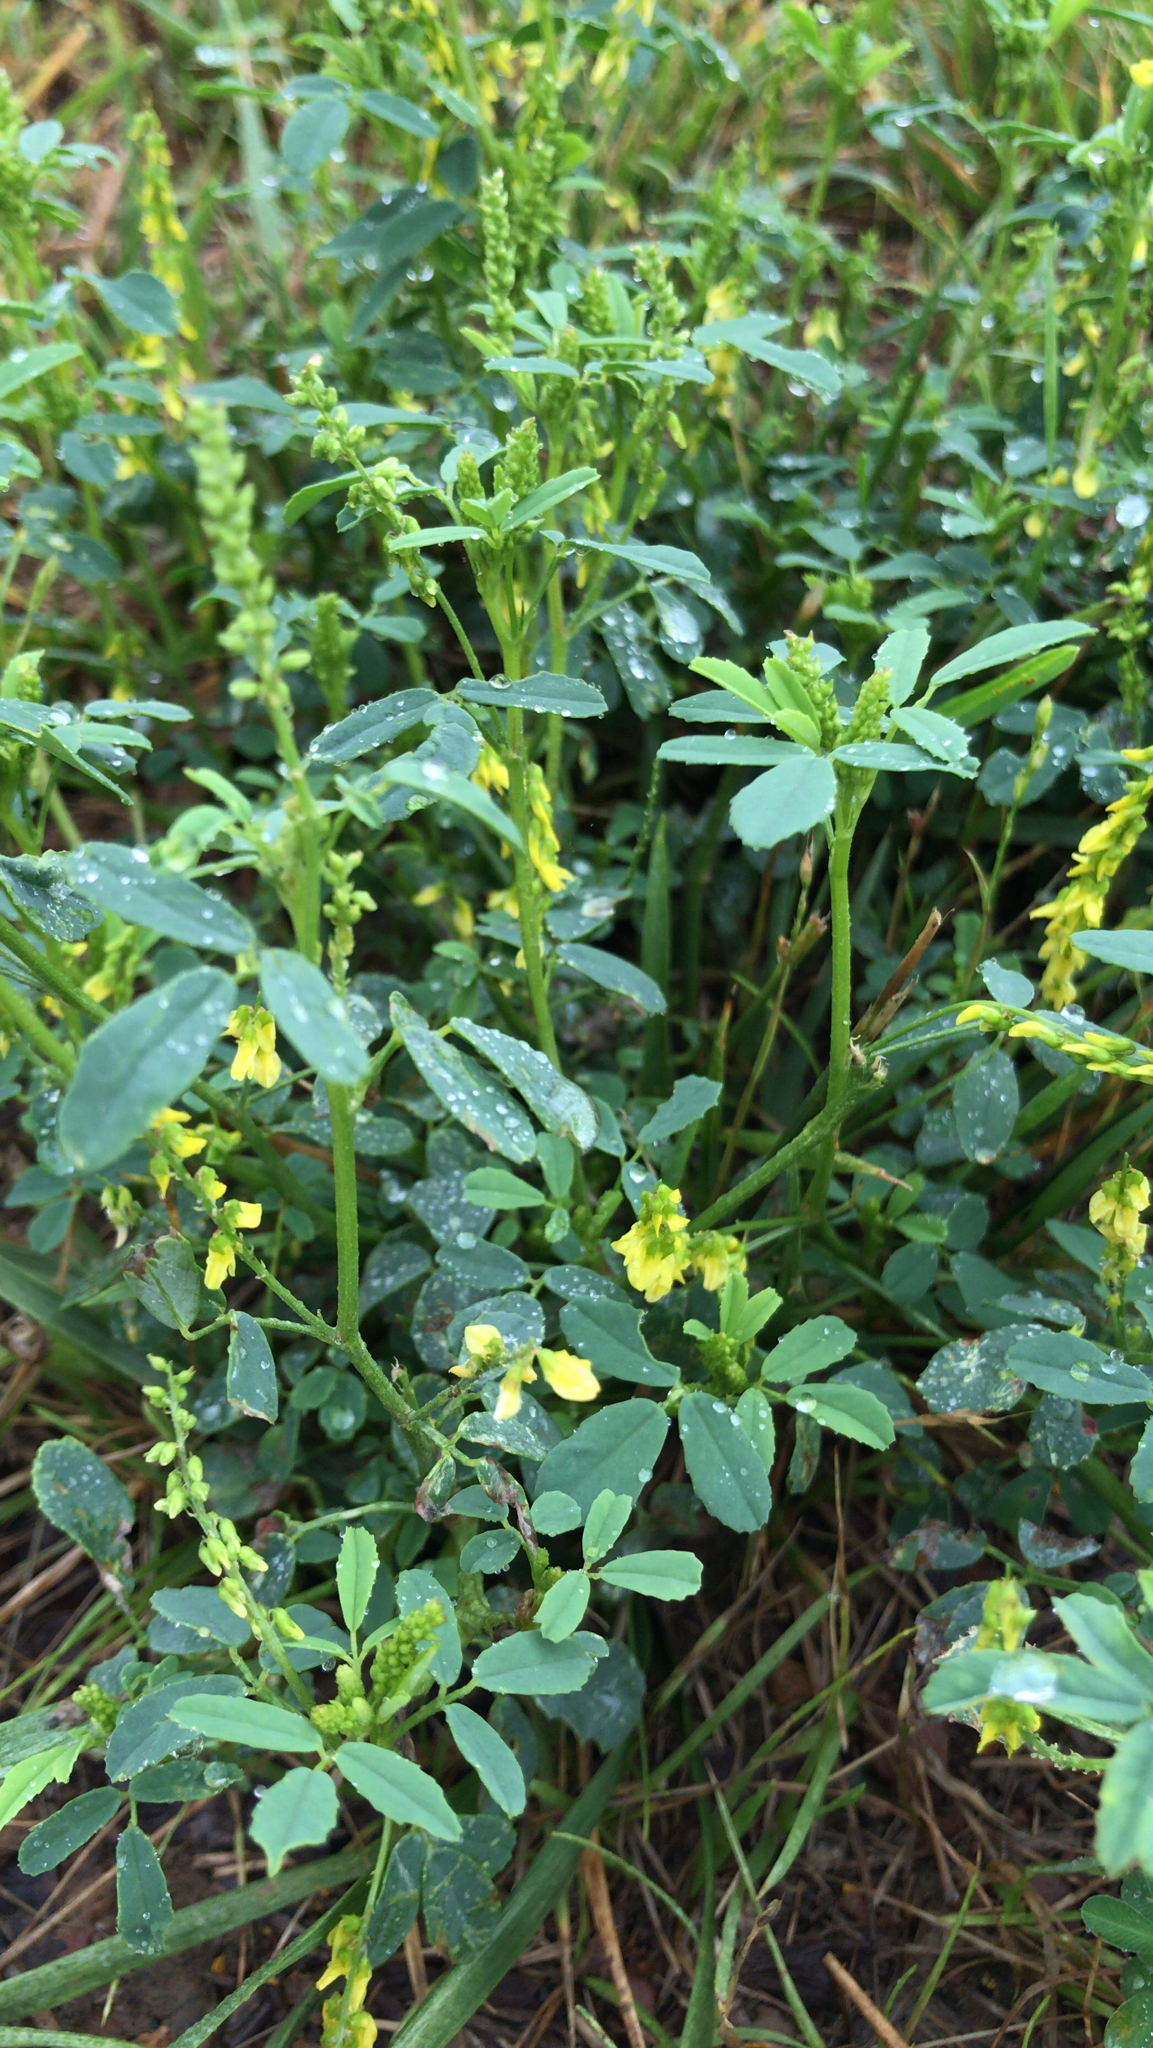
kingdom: Plantae
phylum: Tracheophyta
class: Magnoliopsida
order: Fabales
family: Fabaceae
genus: Melilotus
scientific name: Melilotus officinalis
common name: Sweetclover
